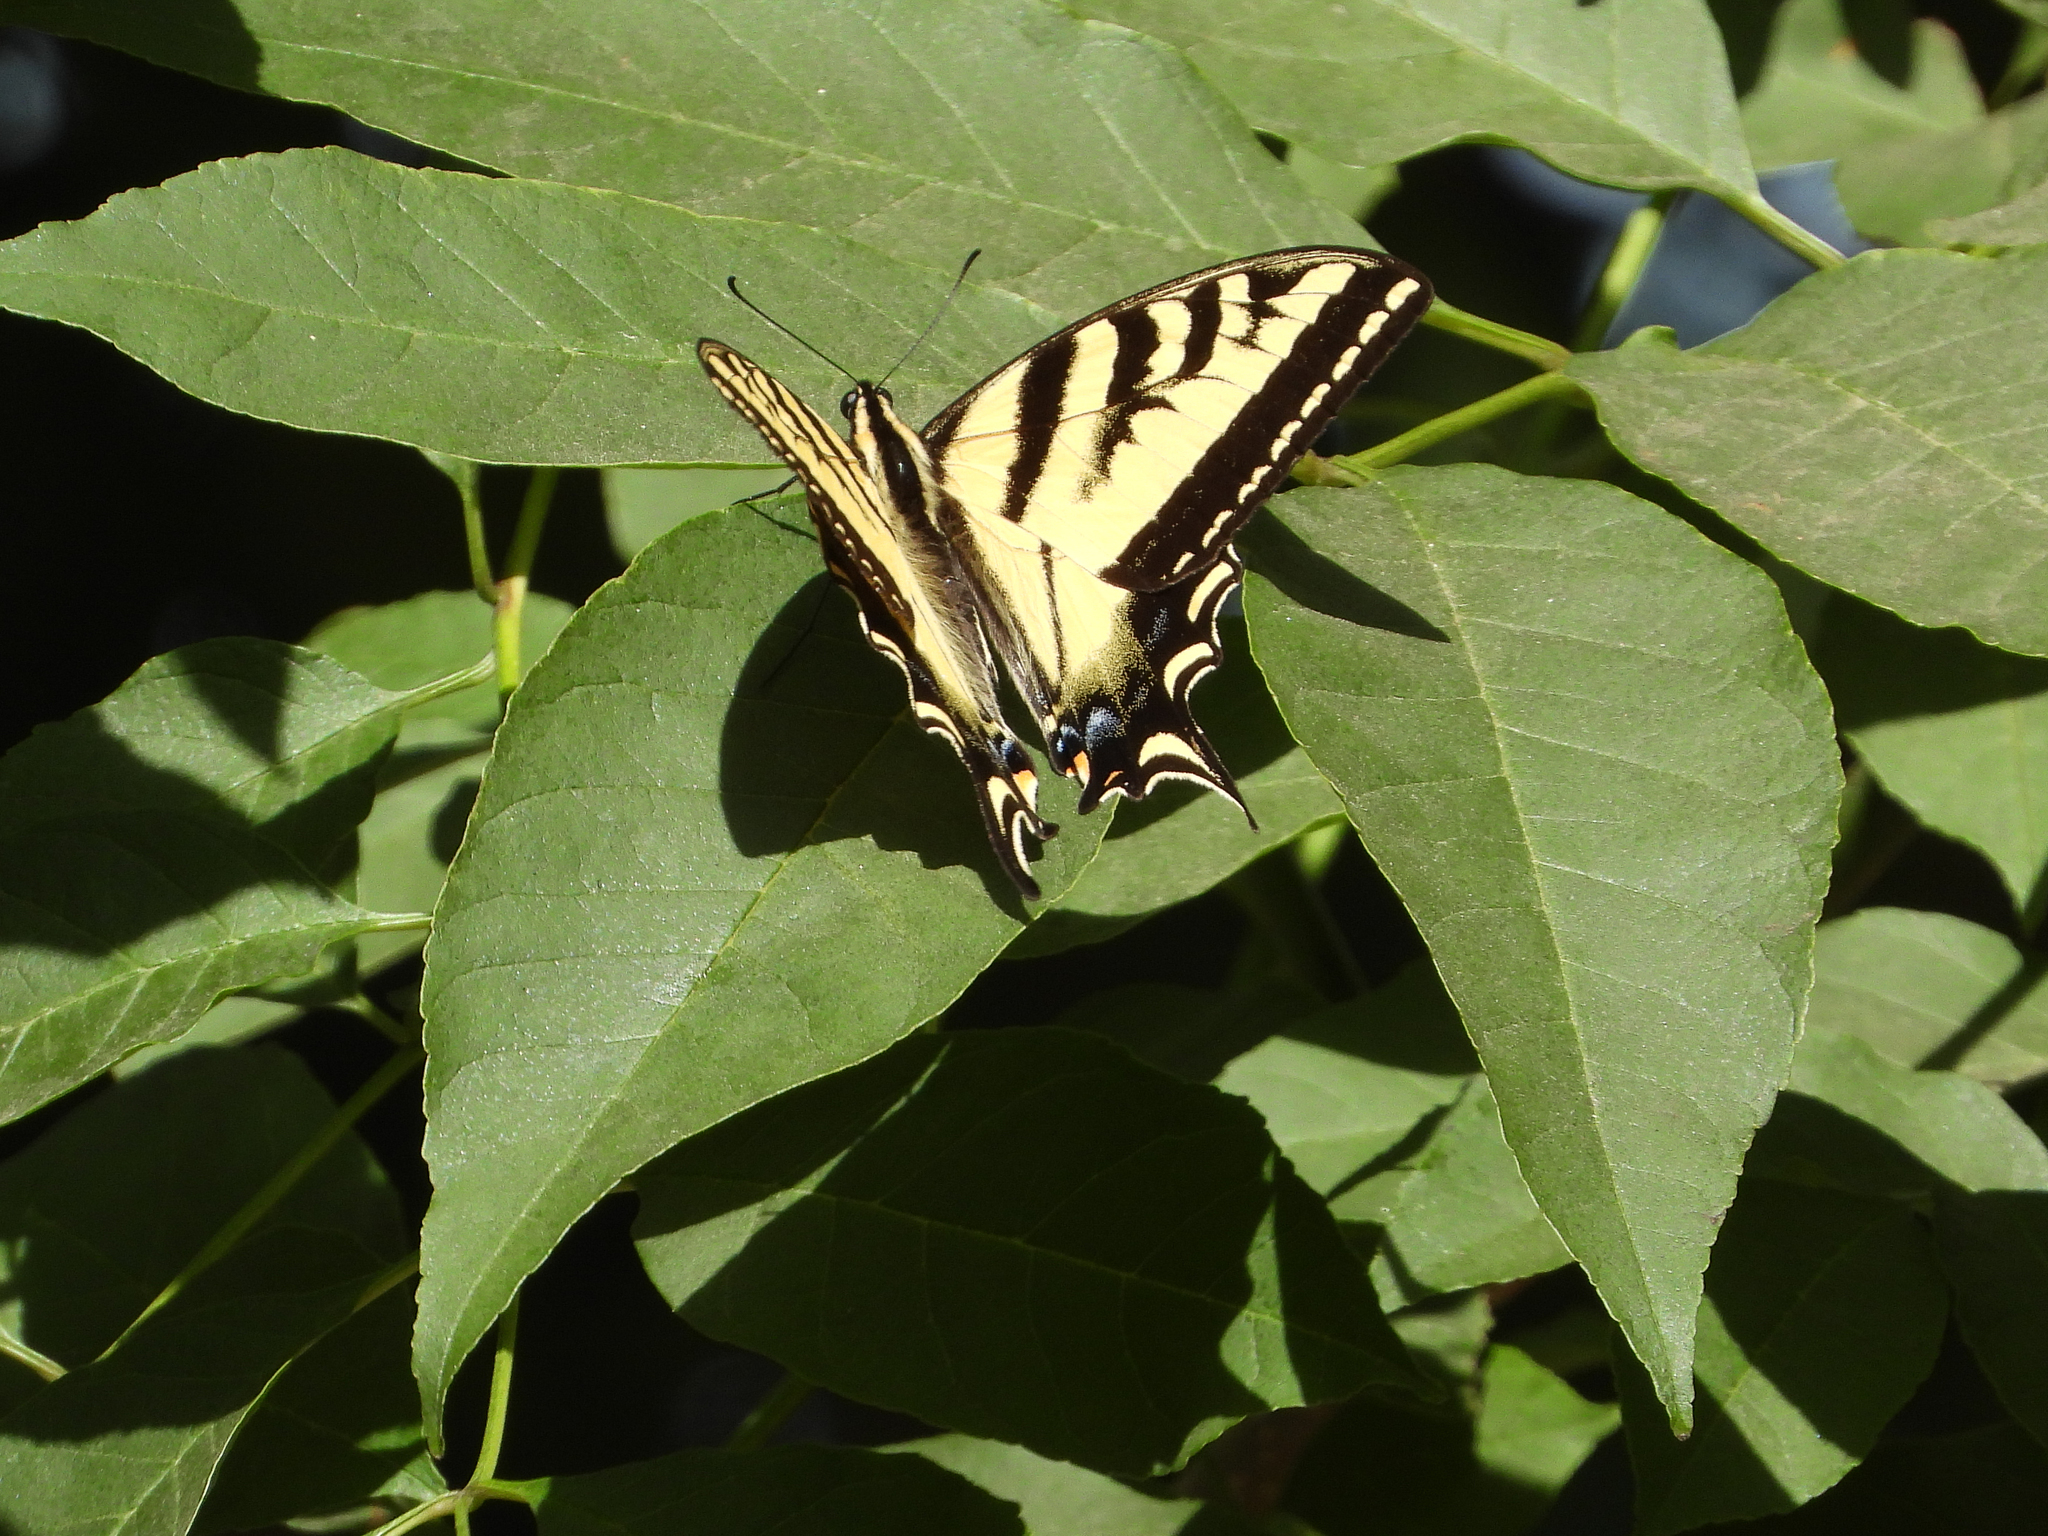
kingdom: Animalia
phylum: Arthropoda
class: Insecta
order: Lepidoptera
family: Papilionidae
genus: Papilio
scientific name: Papilio rutulus
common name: Western tiger swallowtail
